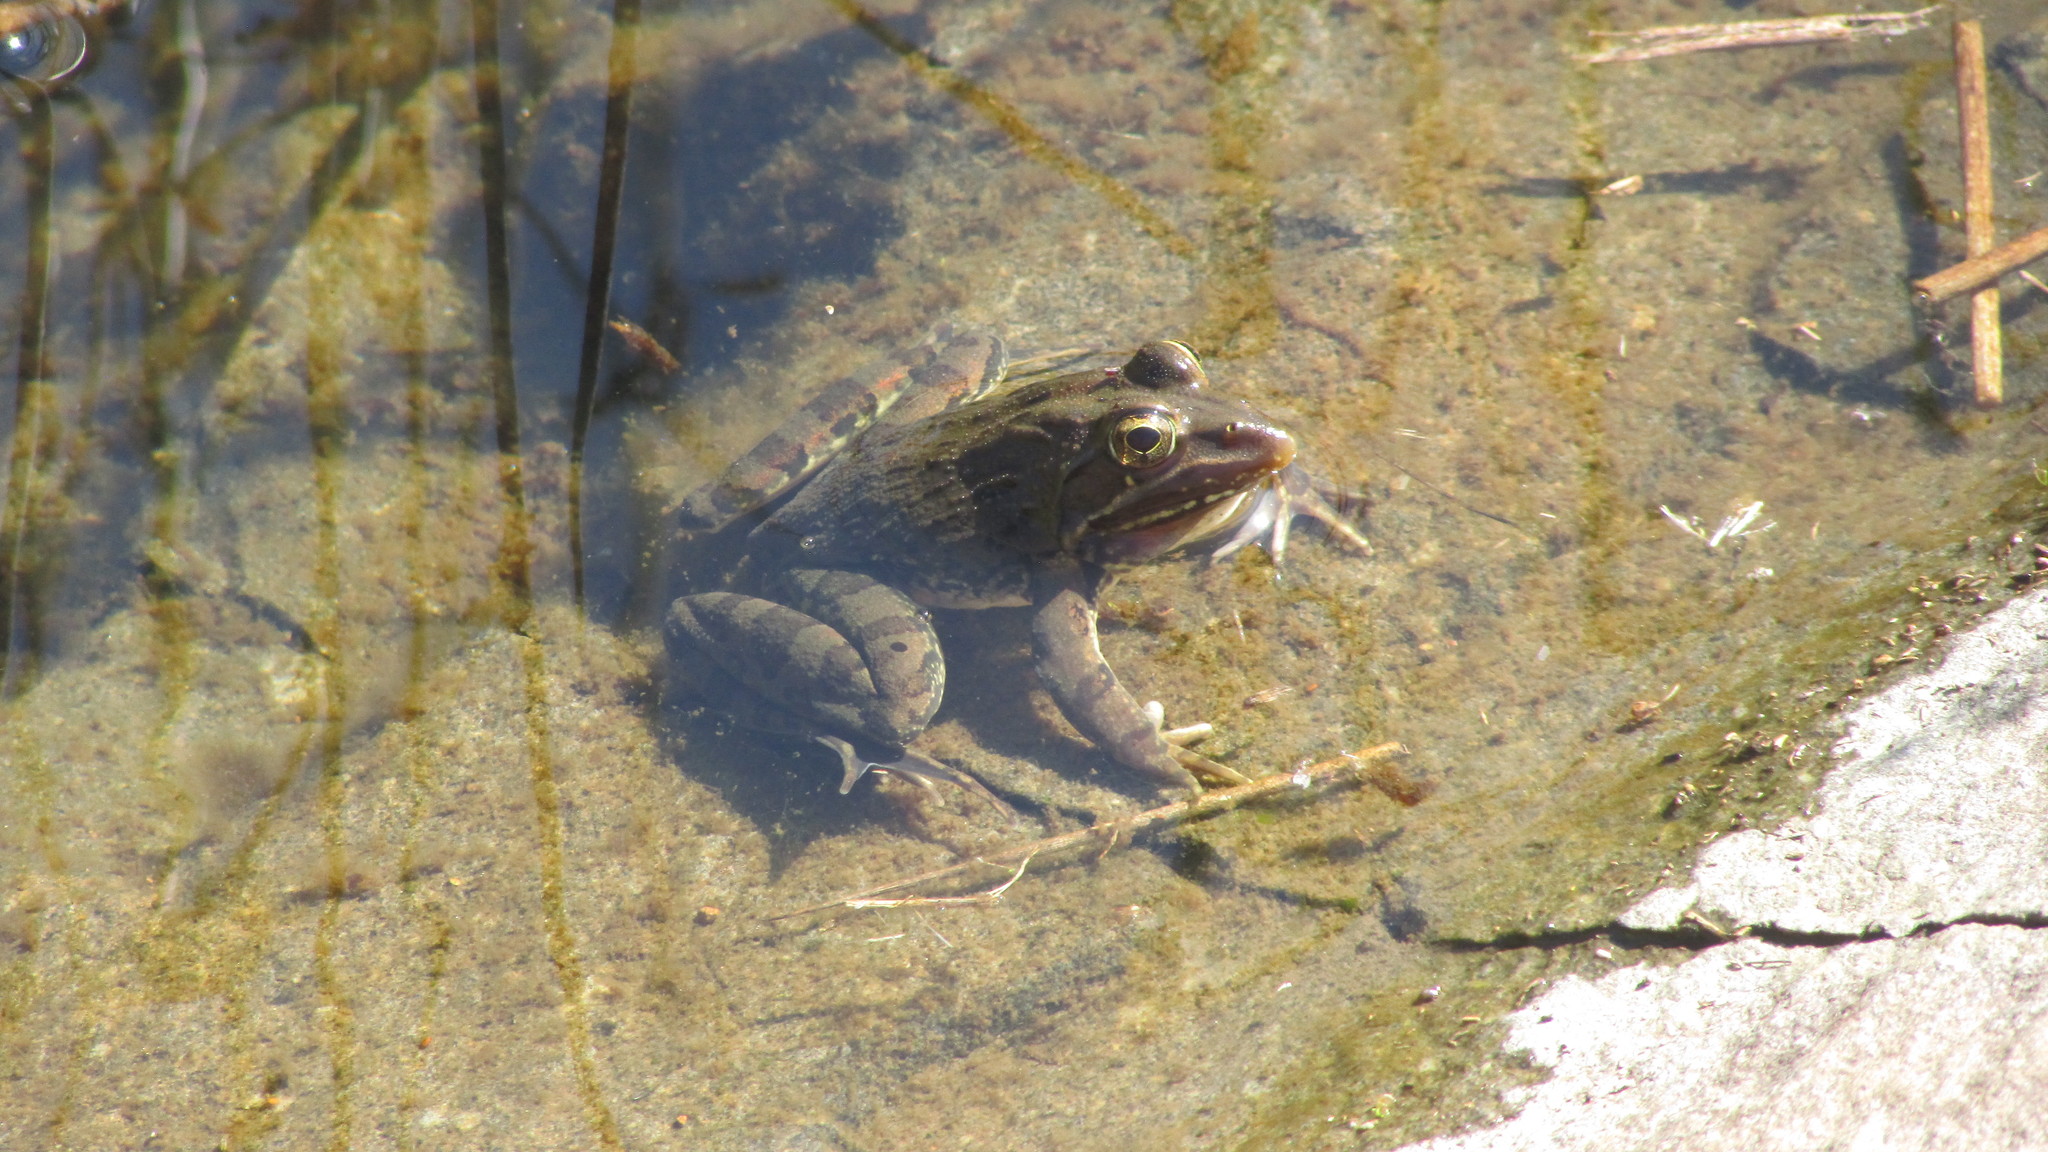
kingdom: Animalia
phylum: Chordata
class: Amphibia
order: Anura
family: Pyxicephalidae
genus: Amietia
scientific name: Amietia delalandii
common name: Delalande's river frog
